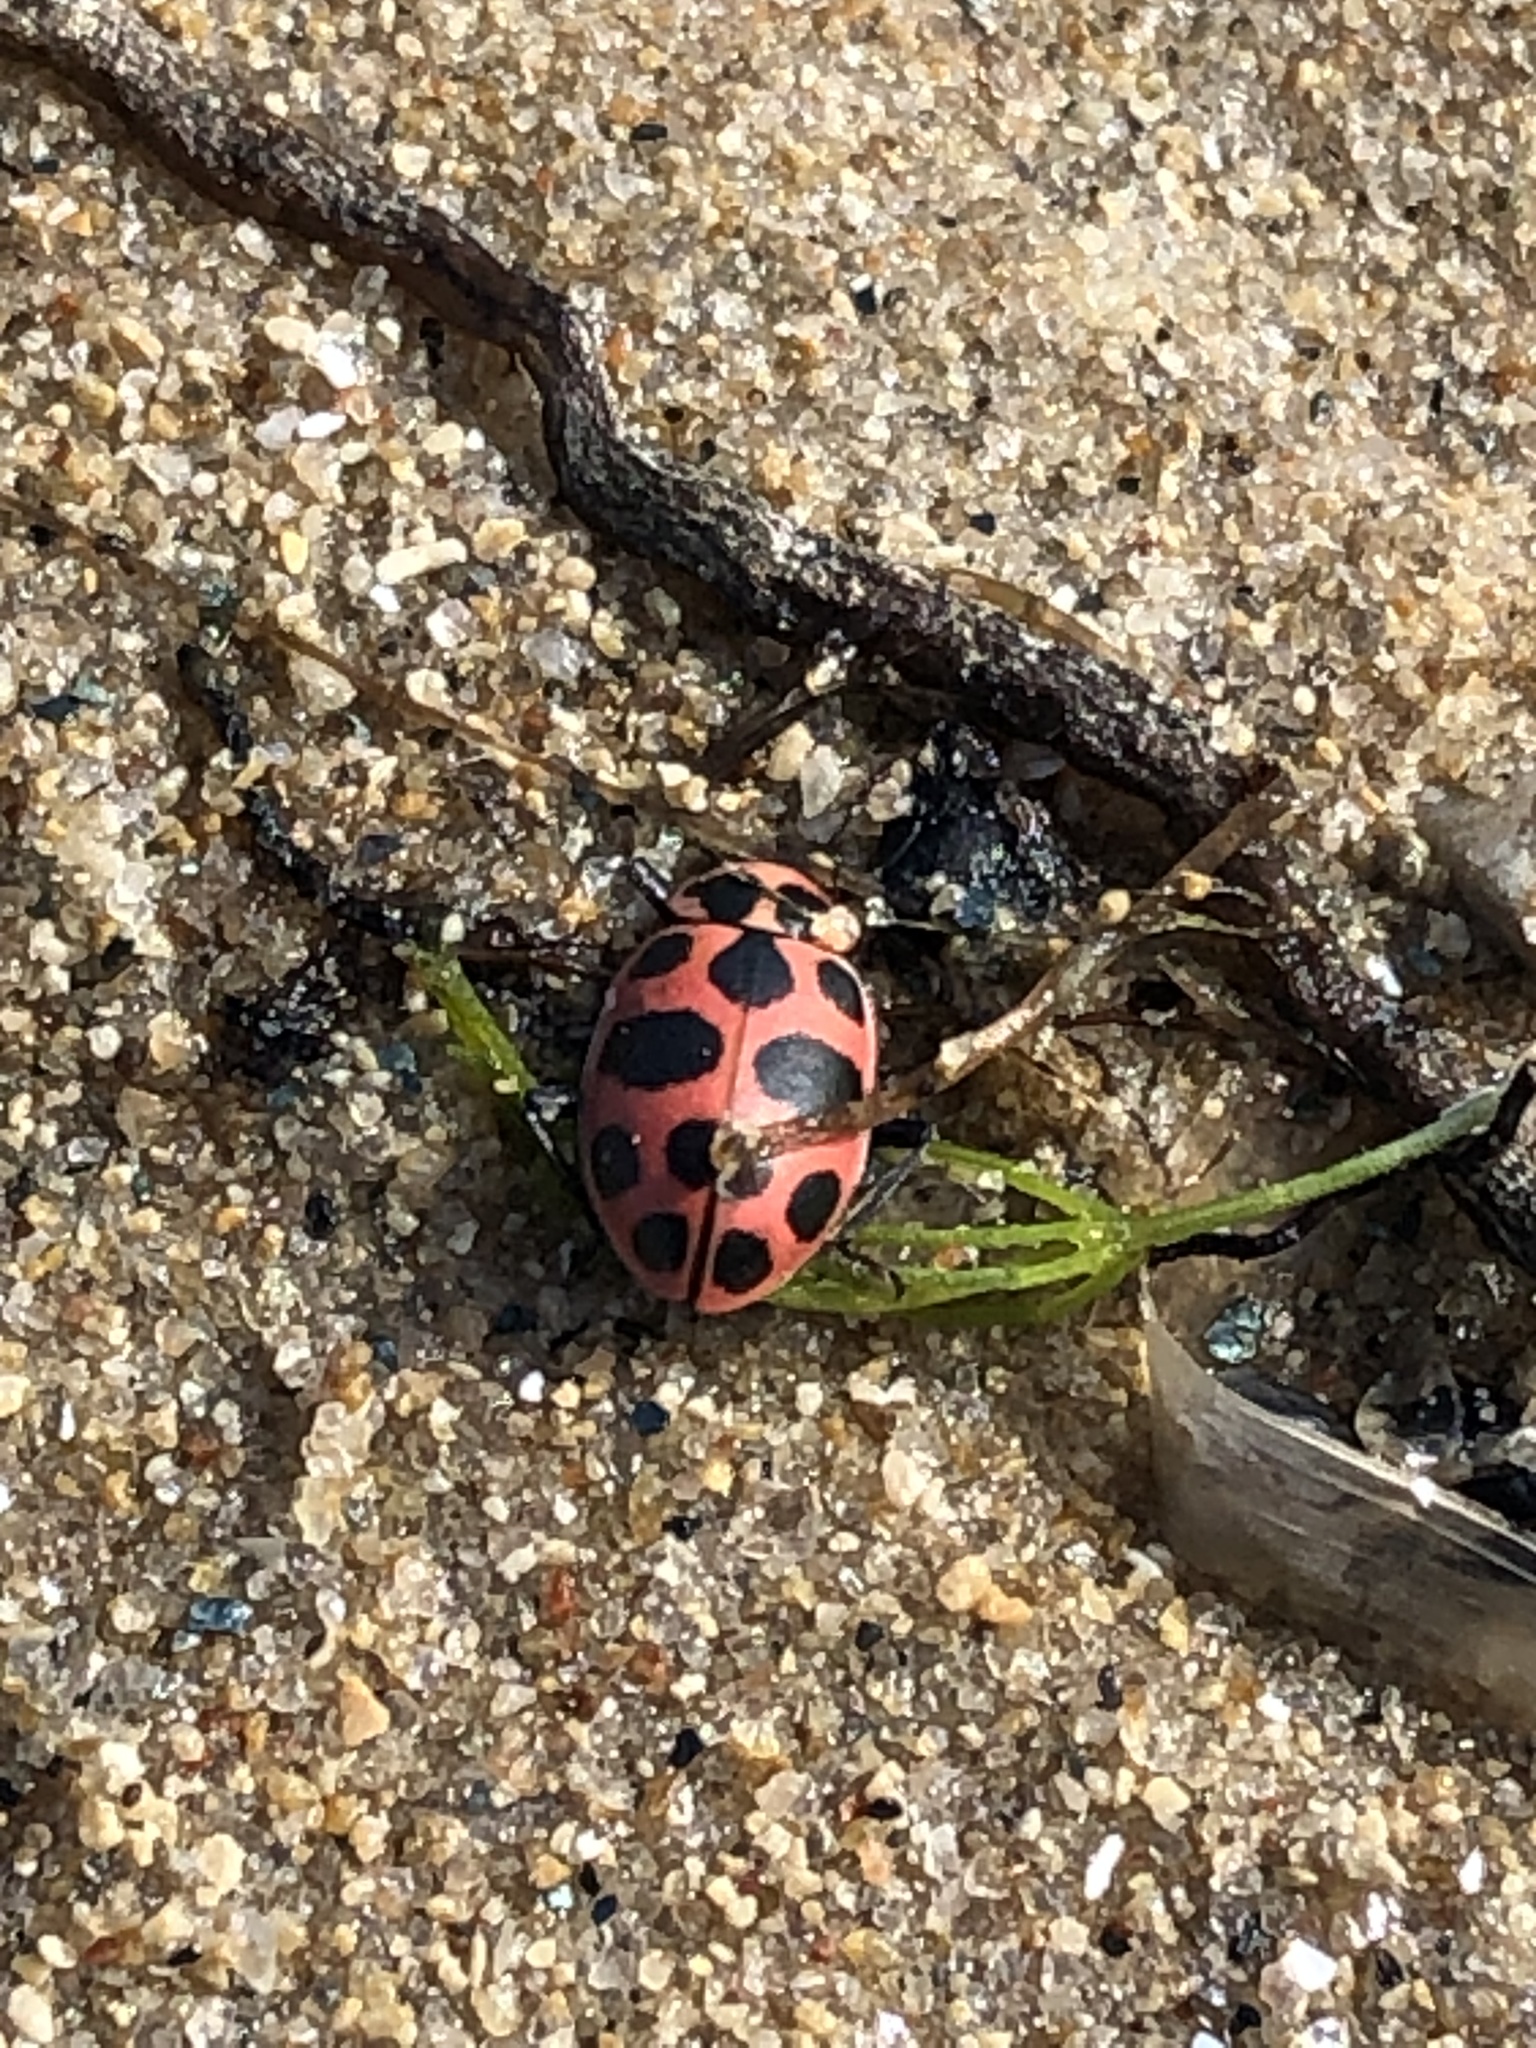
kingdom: Animalia
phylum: Arthropoda
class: Insecta
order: Coleoptera
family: Coccinellidae
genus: Coleomegilla
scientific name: Coleomegilla maculata
